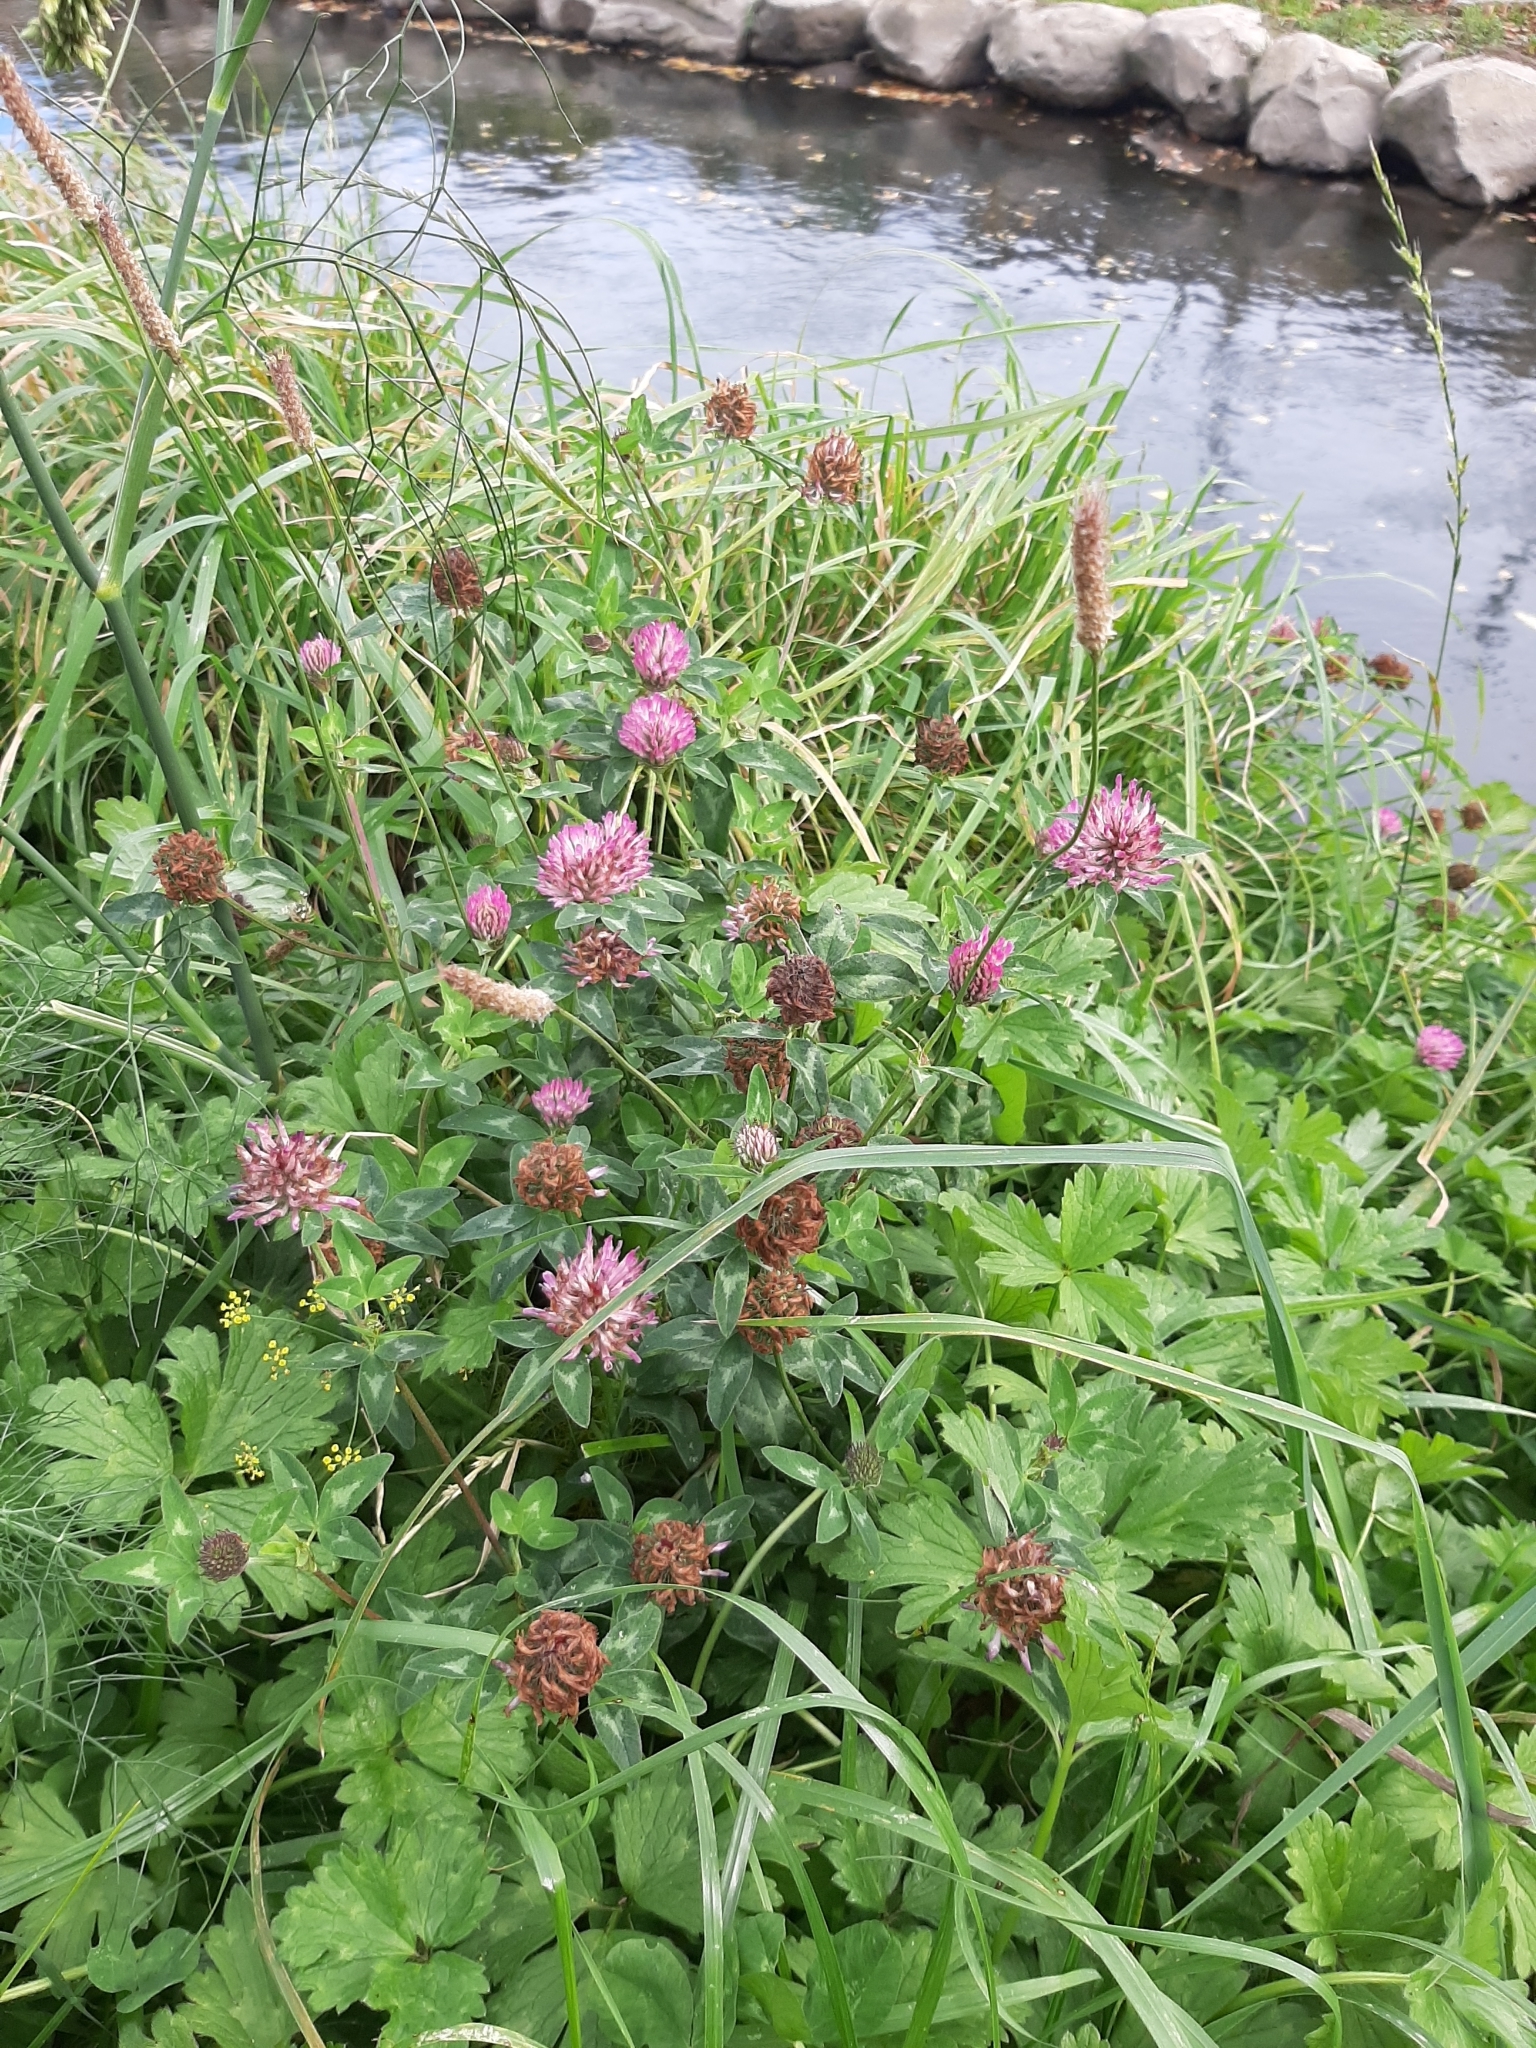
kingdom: Plantae
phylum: Tracheophyta
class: Magnoliopsida
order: Fabales
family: Fabaceae
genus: Trifolium
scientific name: Trifolium pratense
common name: Red clover
